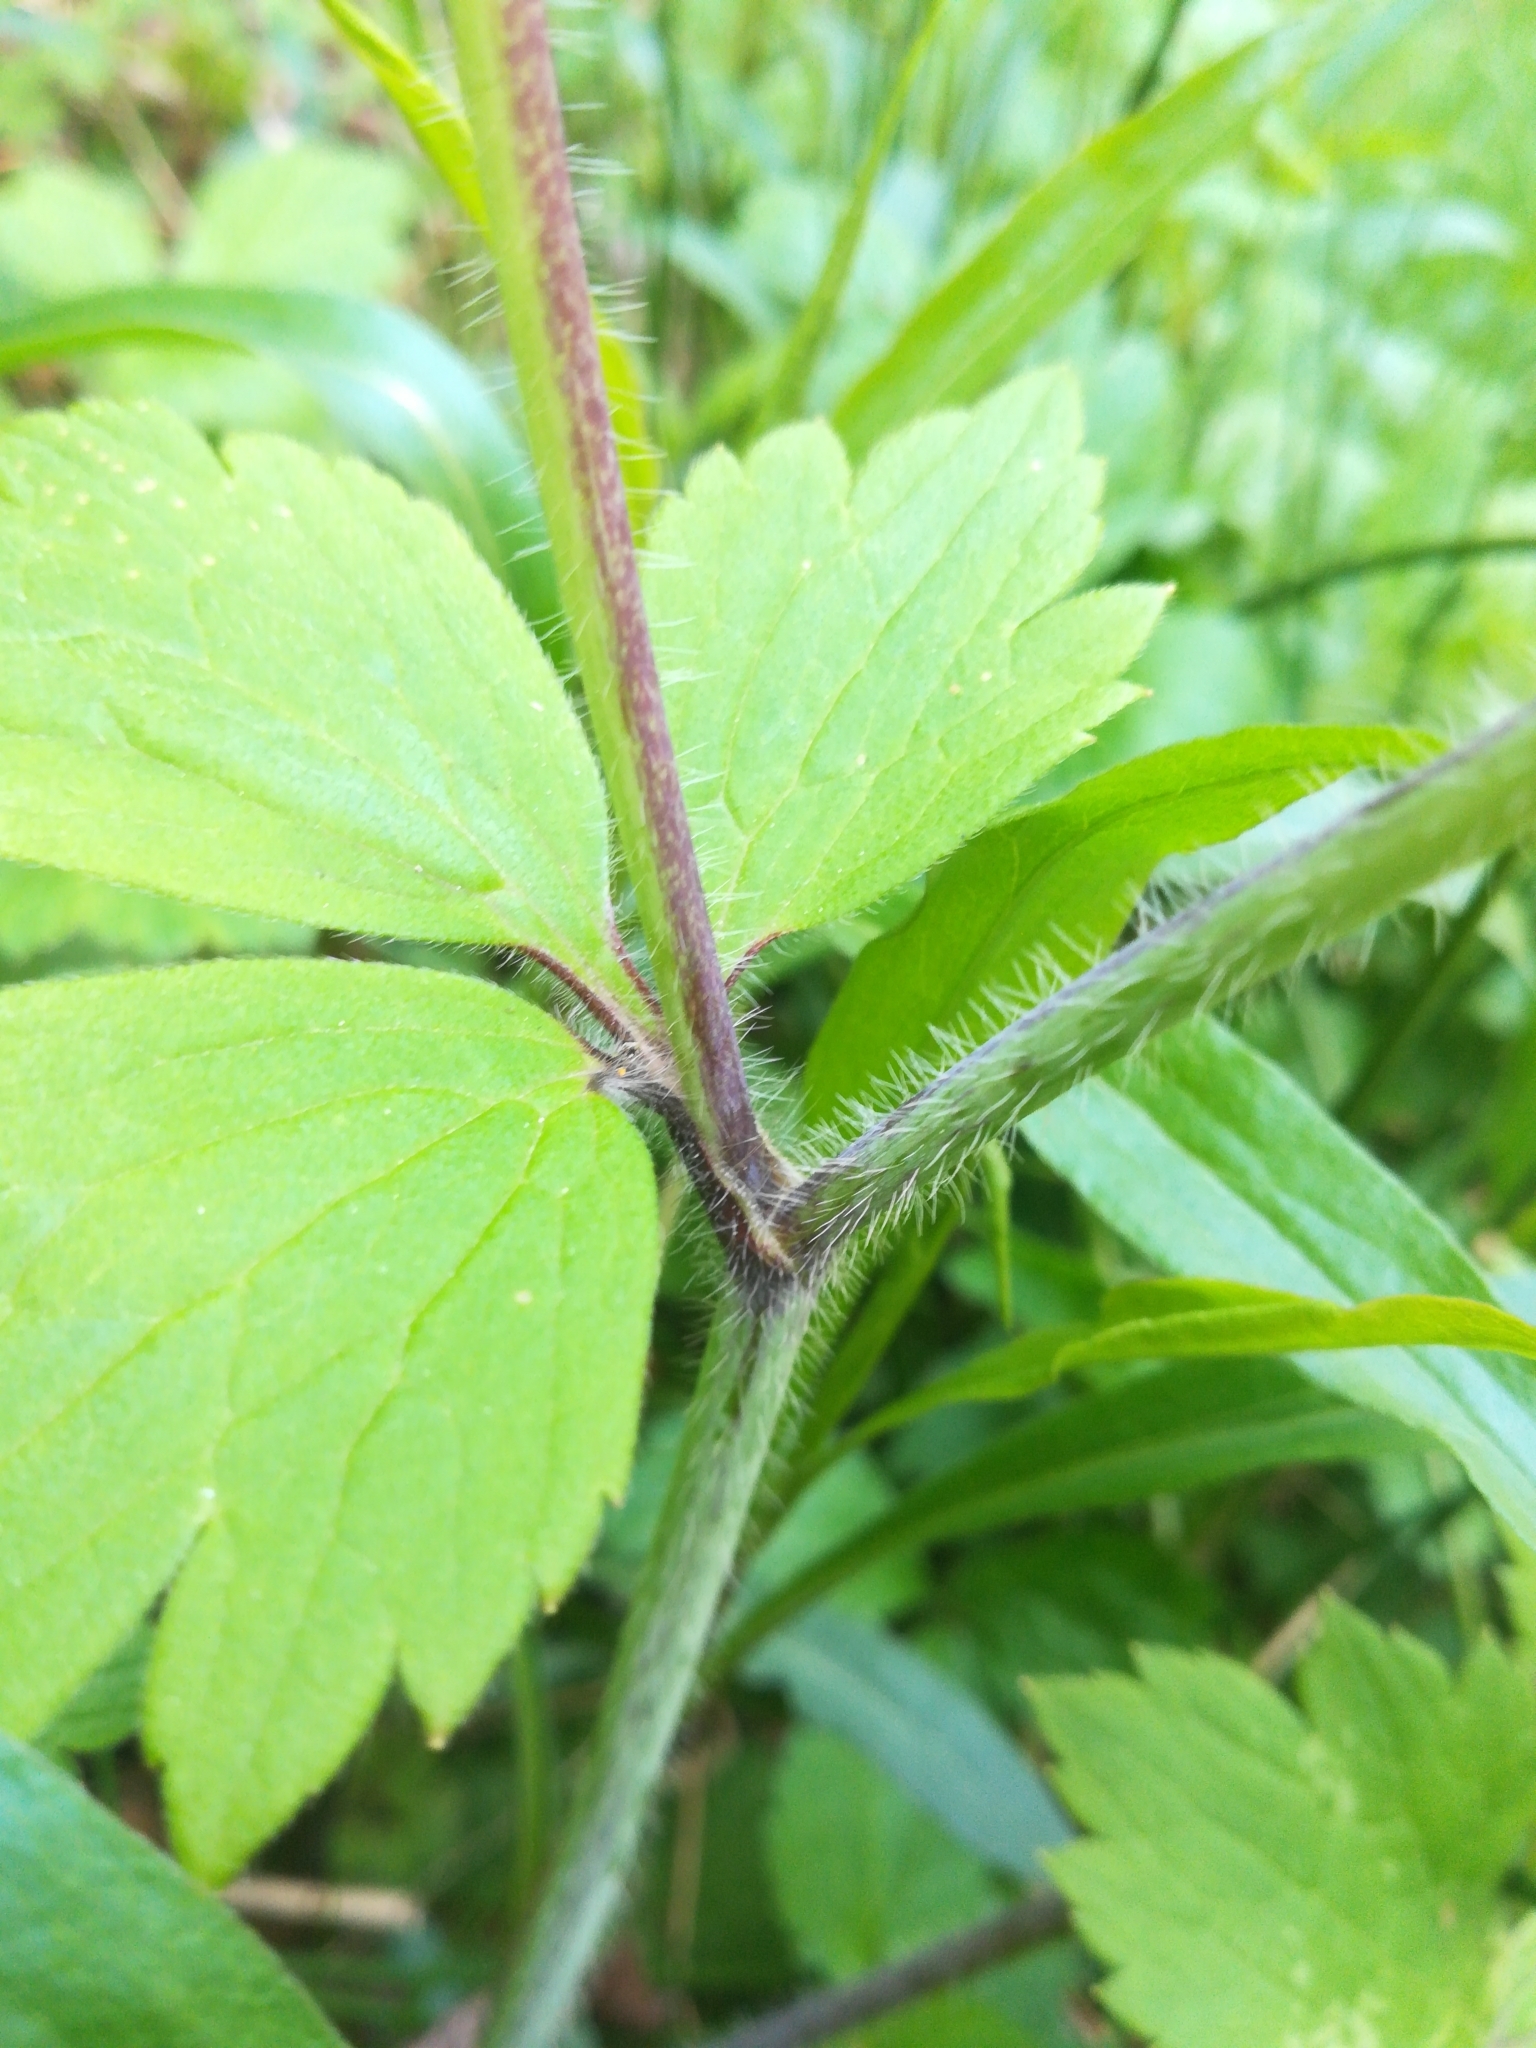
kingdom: Plantae
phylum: Tracheophyta
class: Magnoliopsida
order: Ranunculales
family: Ranunculaceae
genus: Ranunculus
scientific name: Ranunculus lanuginosus
